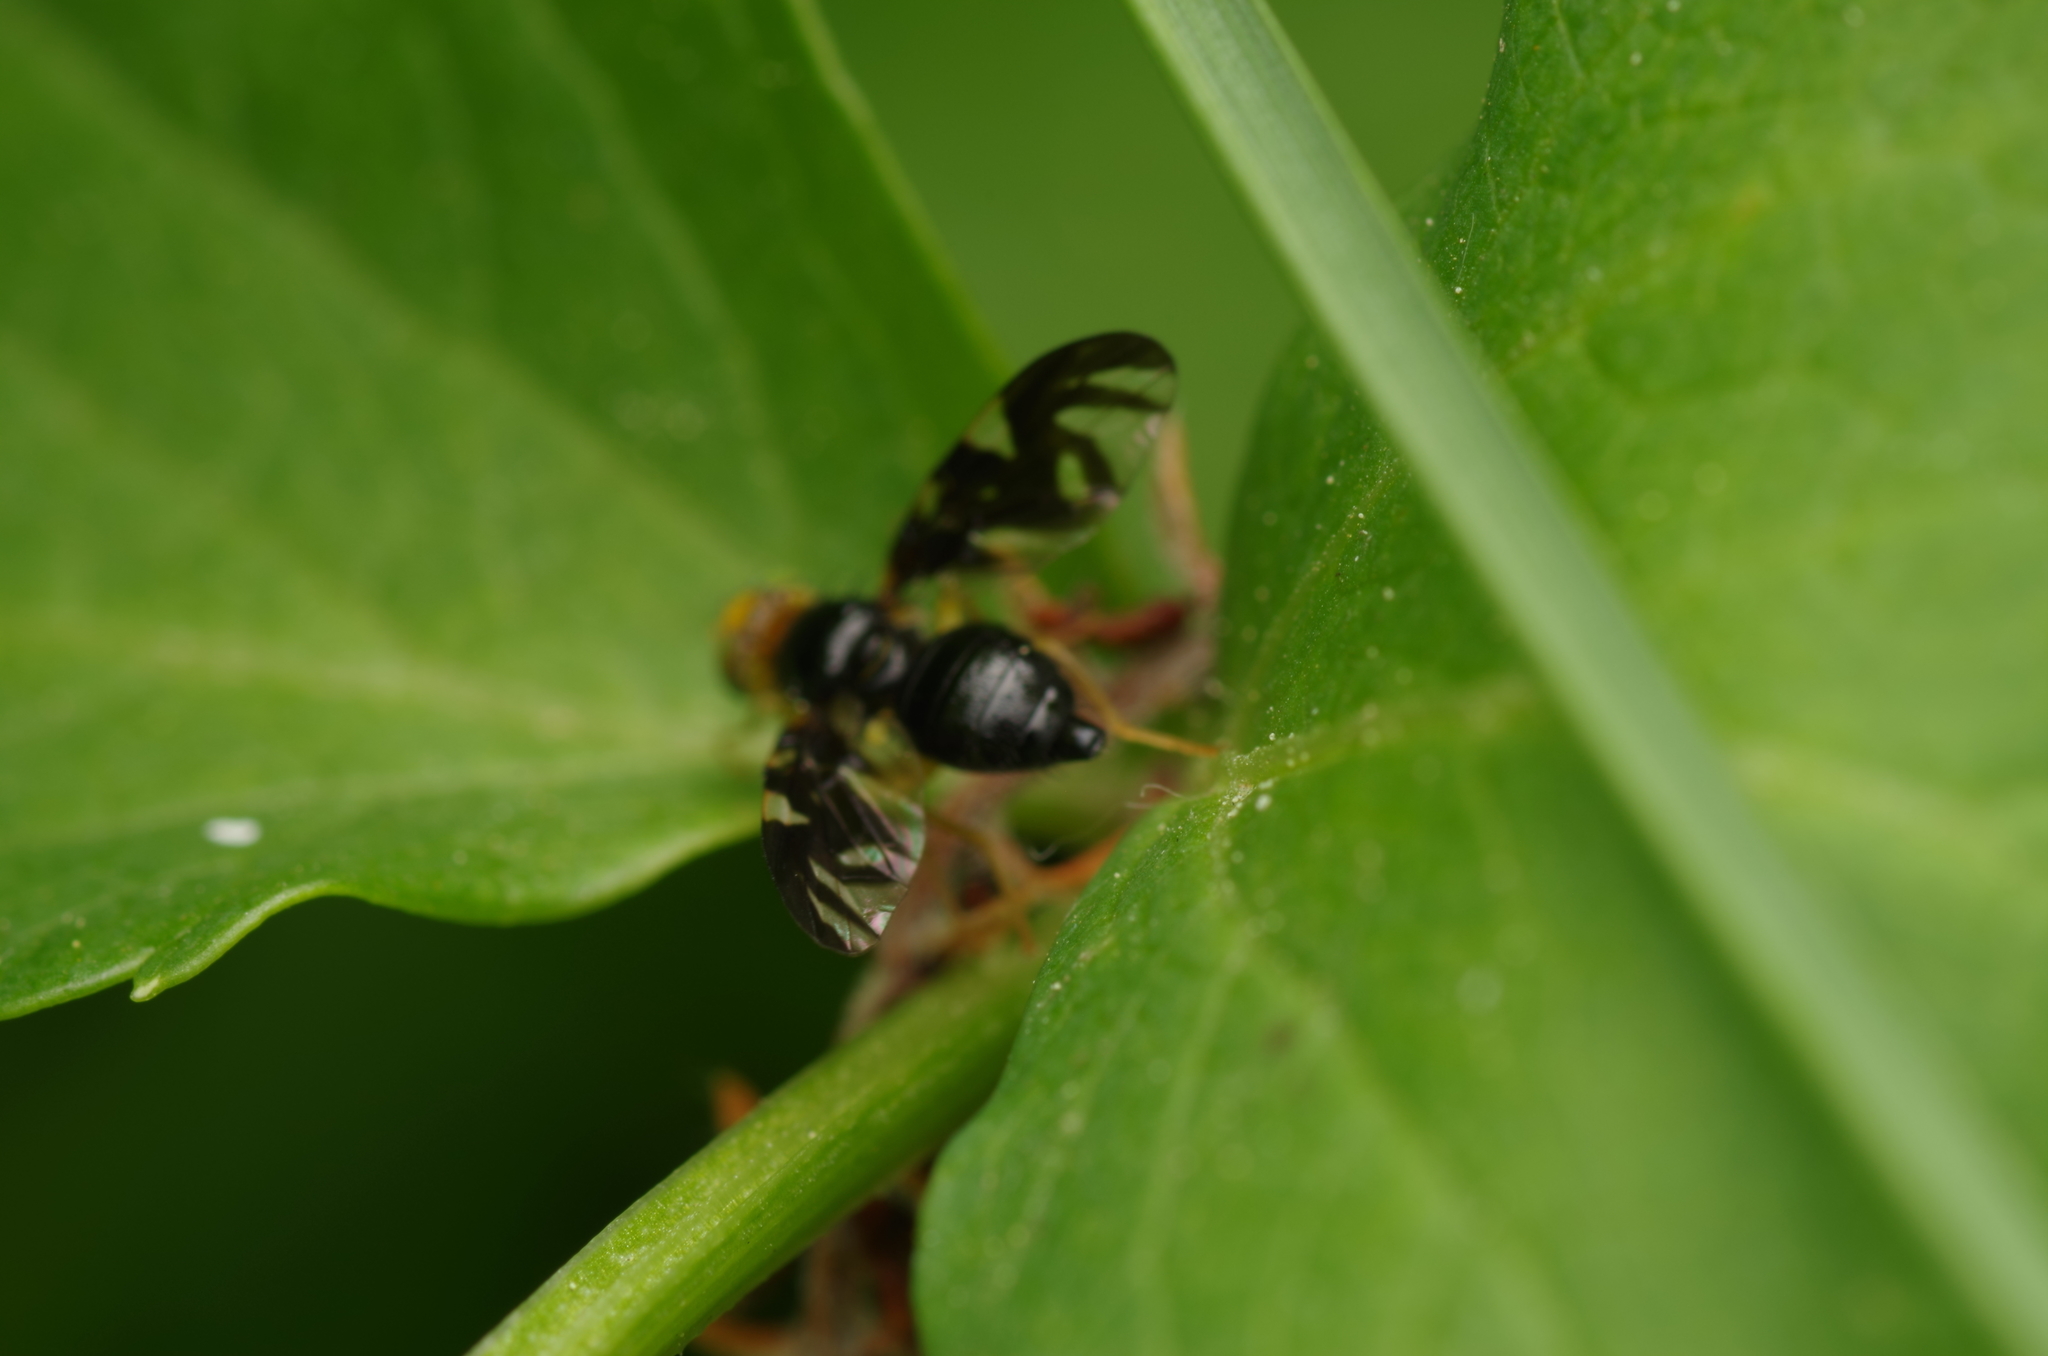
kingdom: Animalia
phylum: Arthropoda
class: Insecta
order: Diptera
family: Tephritidae
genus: Euleia
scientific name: Euleia heraclei
